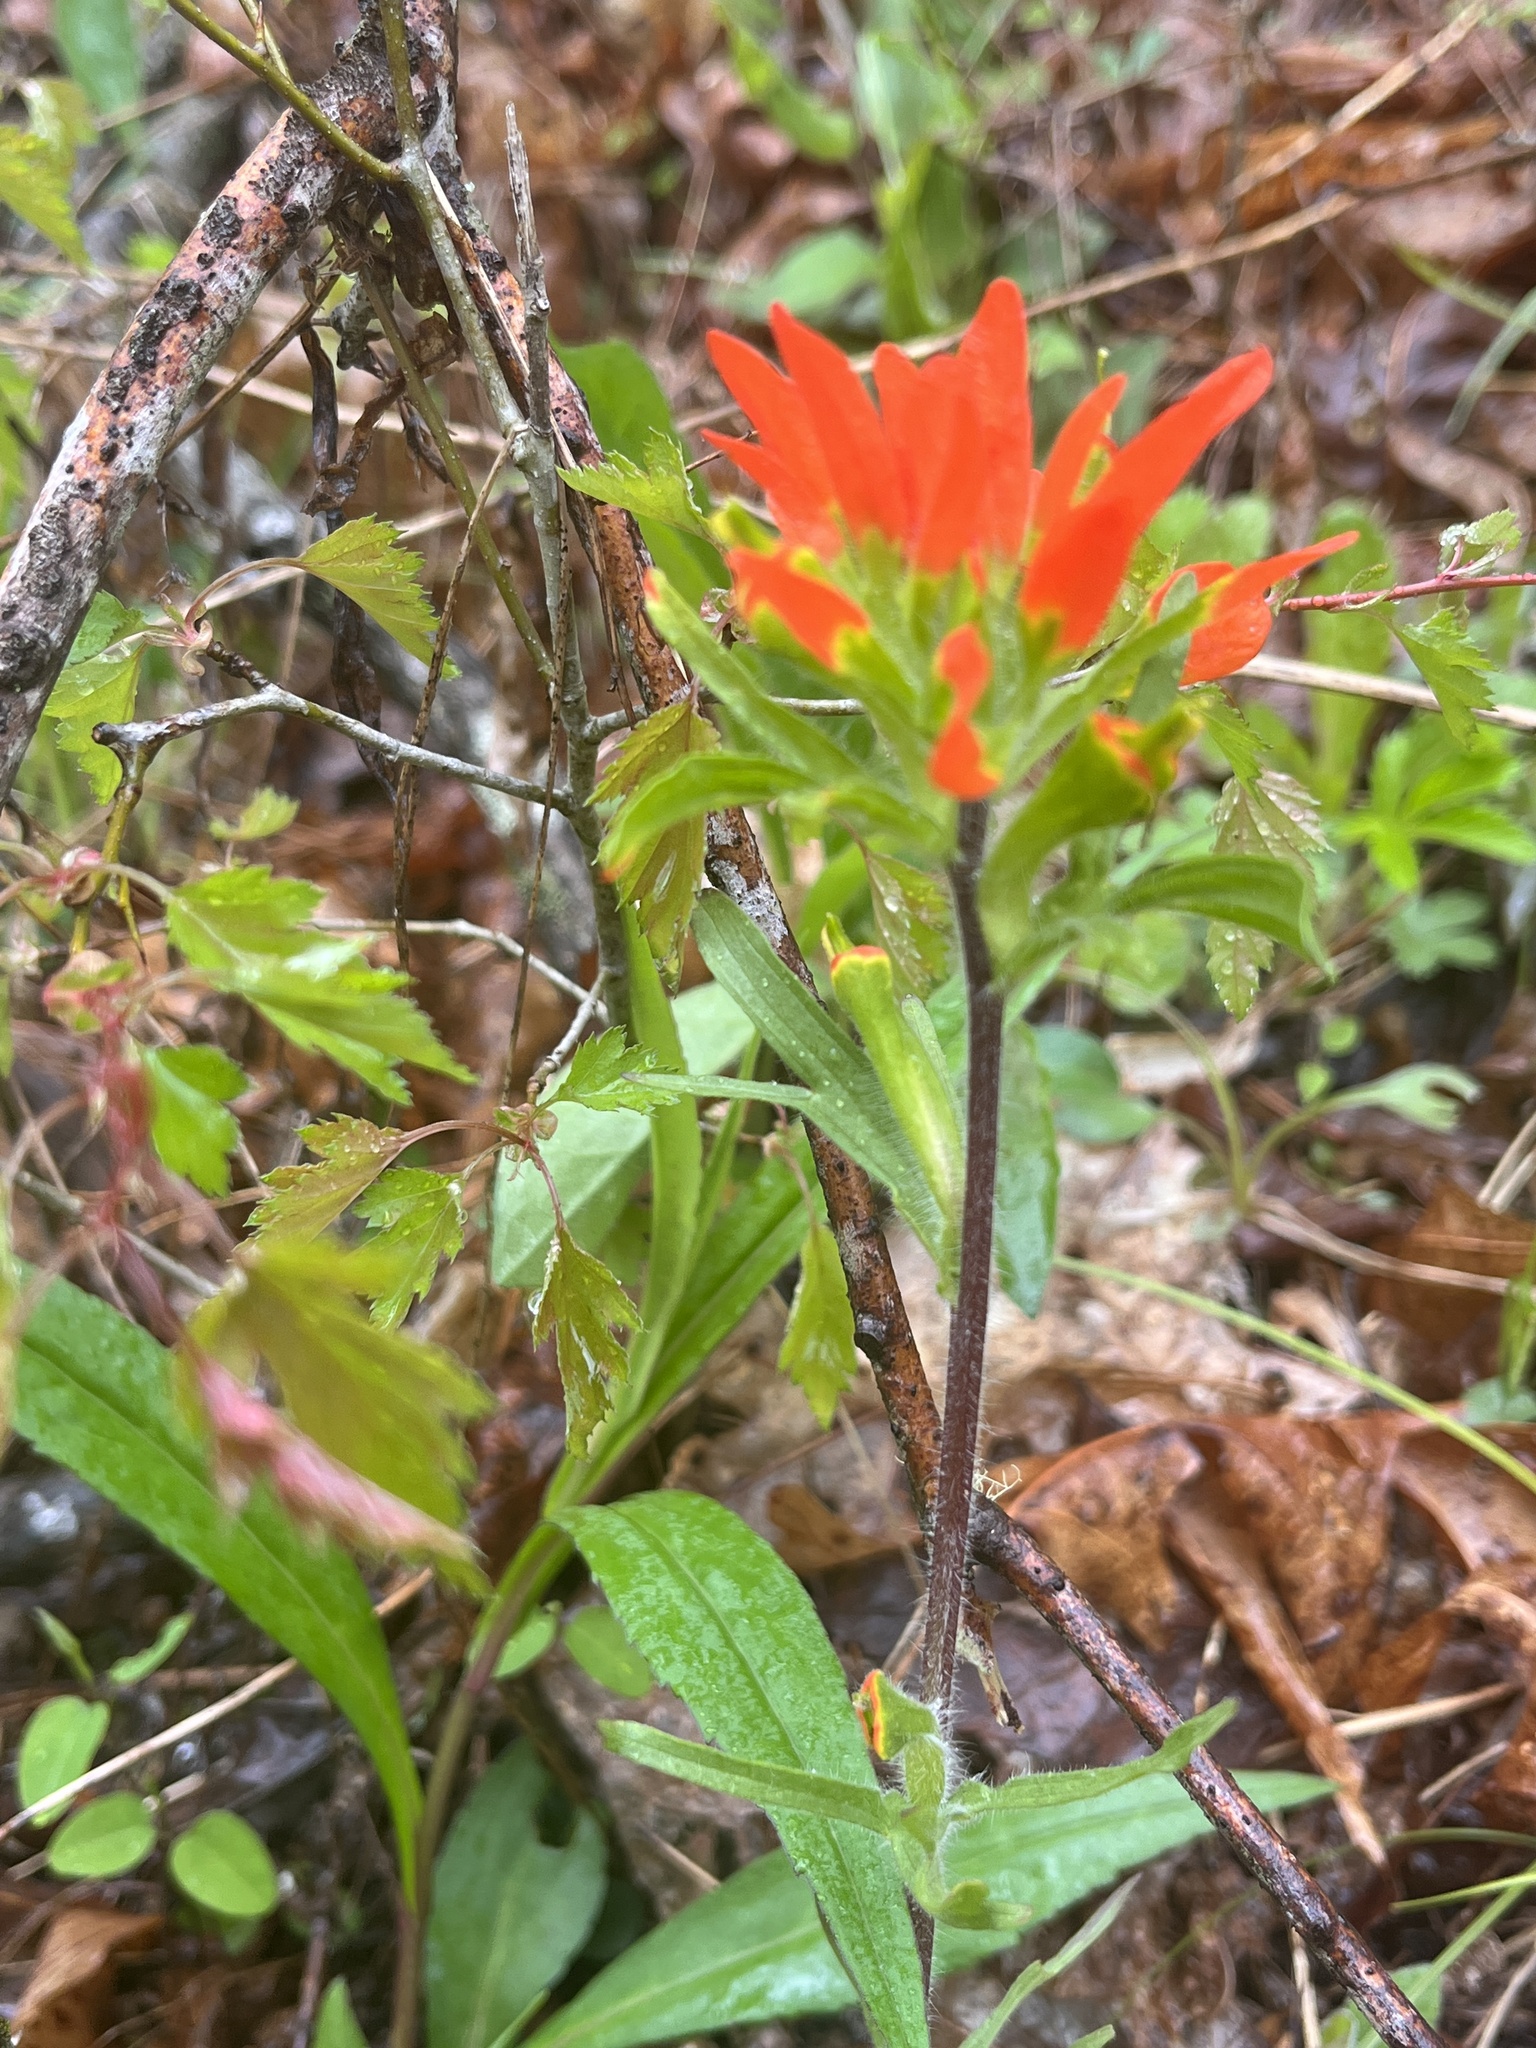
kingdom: Plantae
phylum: Tracheophyta
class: Magnoliopsida
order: Lamiales
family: Orobanchaceae
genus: Castilleja
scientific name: Castilleja coccinea
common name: Scarlet paintbrush
